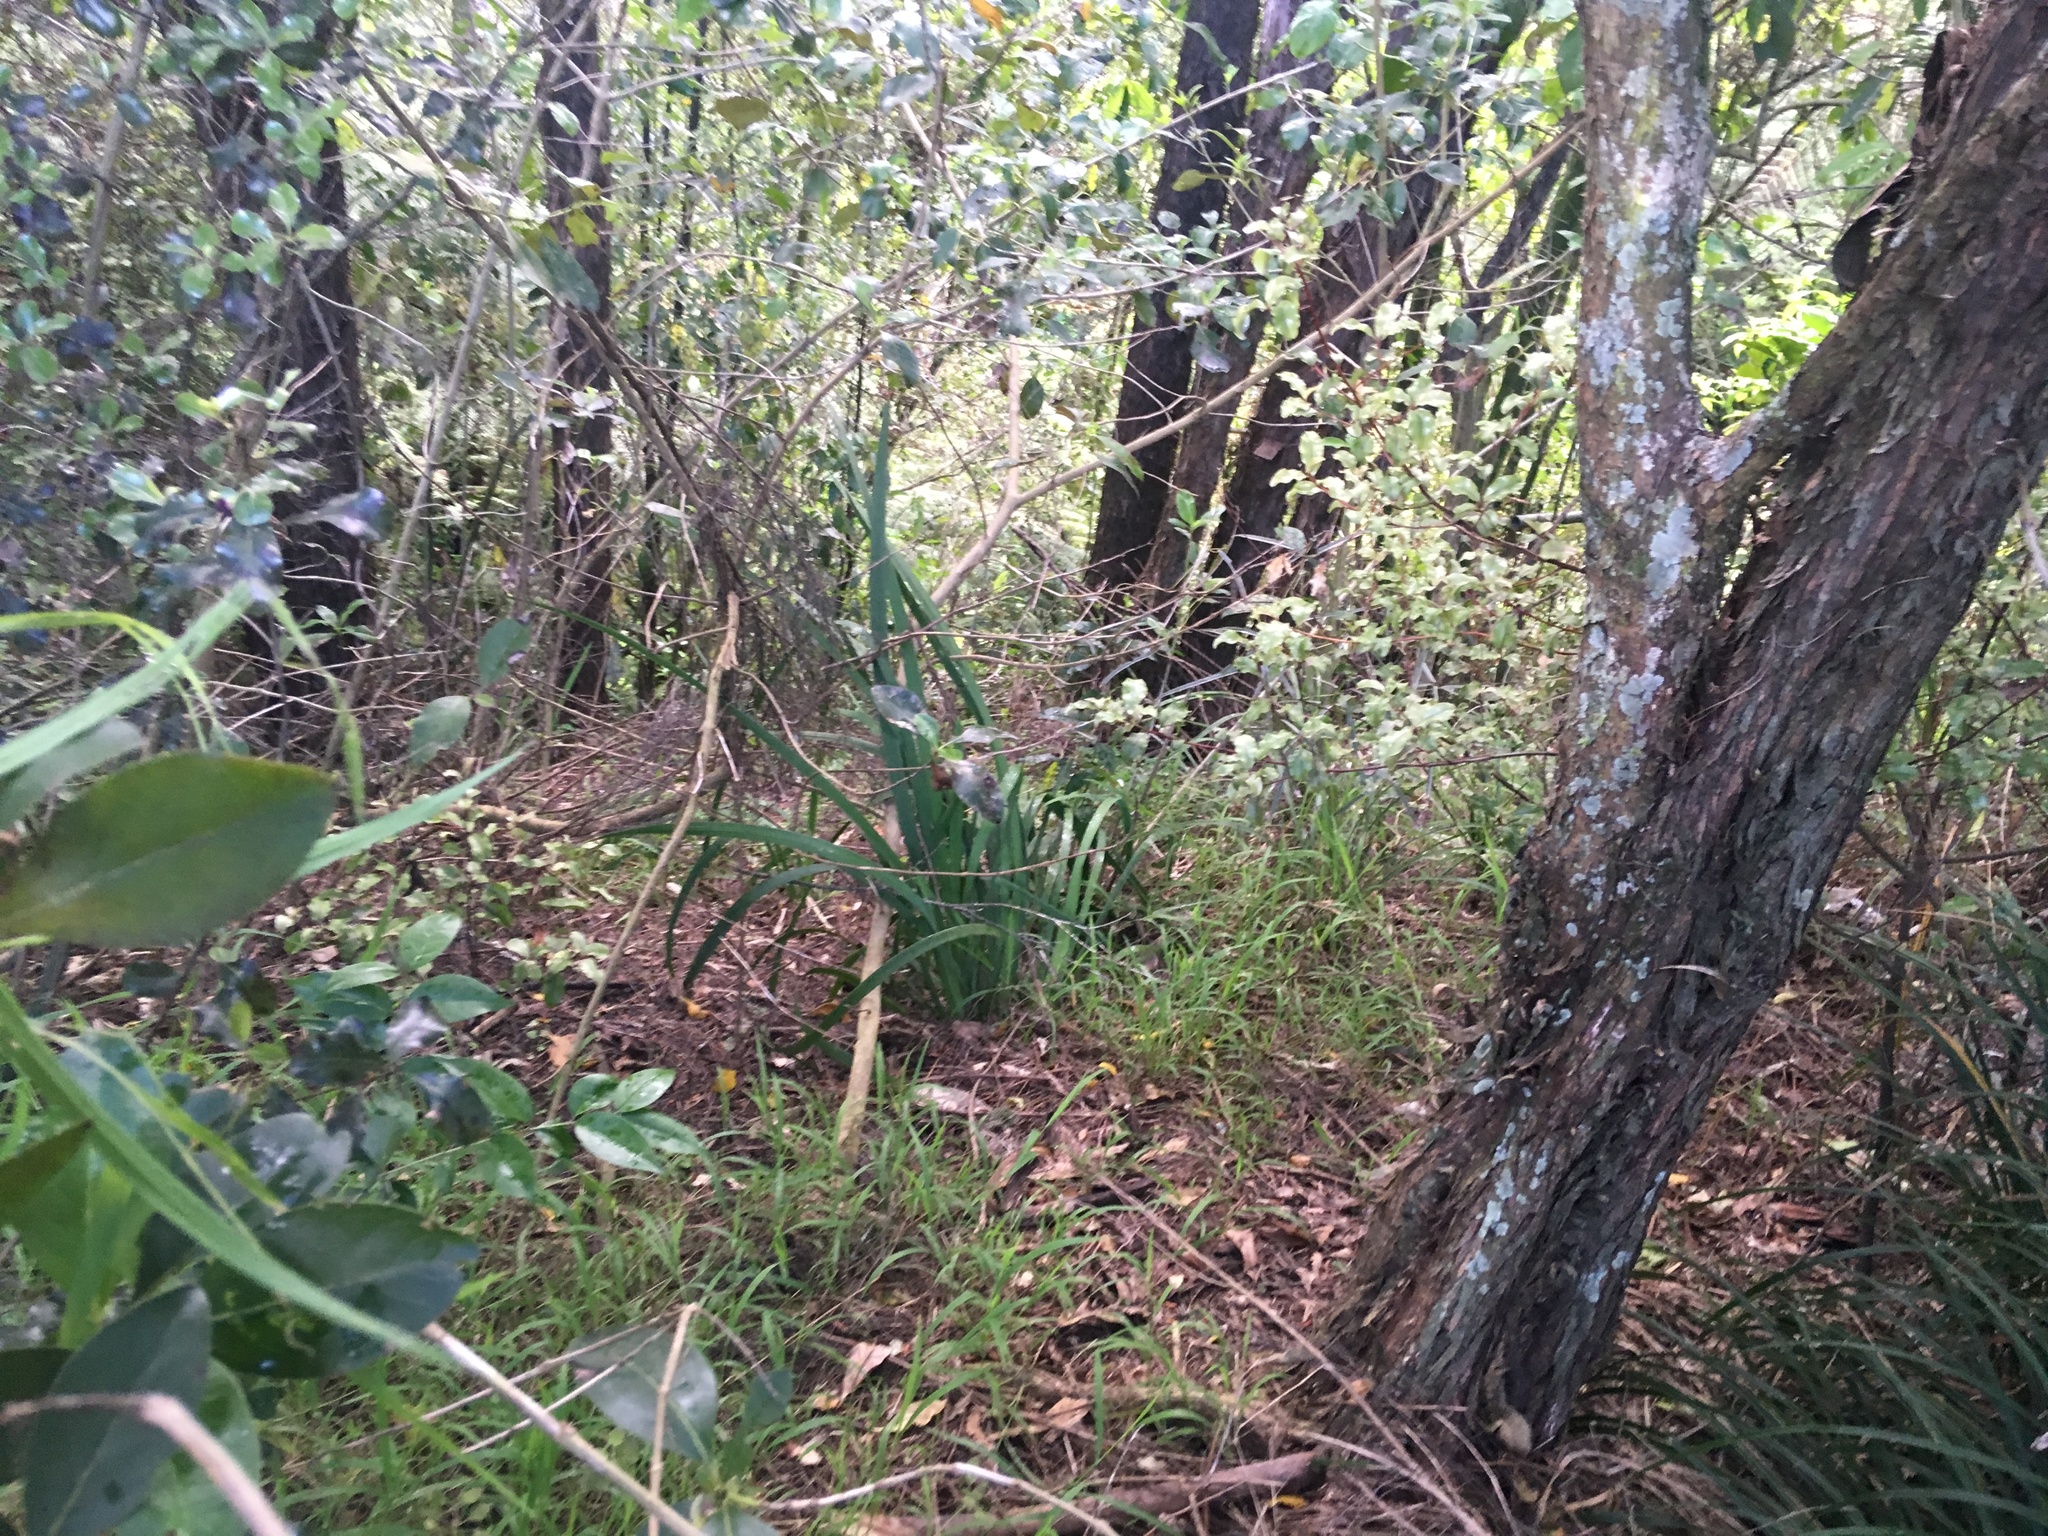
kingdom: Plantae
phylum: Tracheophyta
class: Liliopsida
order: Asparagales
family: Iridaceae
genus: Aristea
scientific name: Aristea ecklonii
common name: Blue corn-lily
